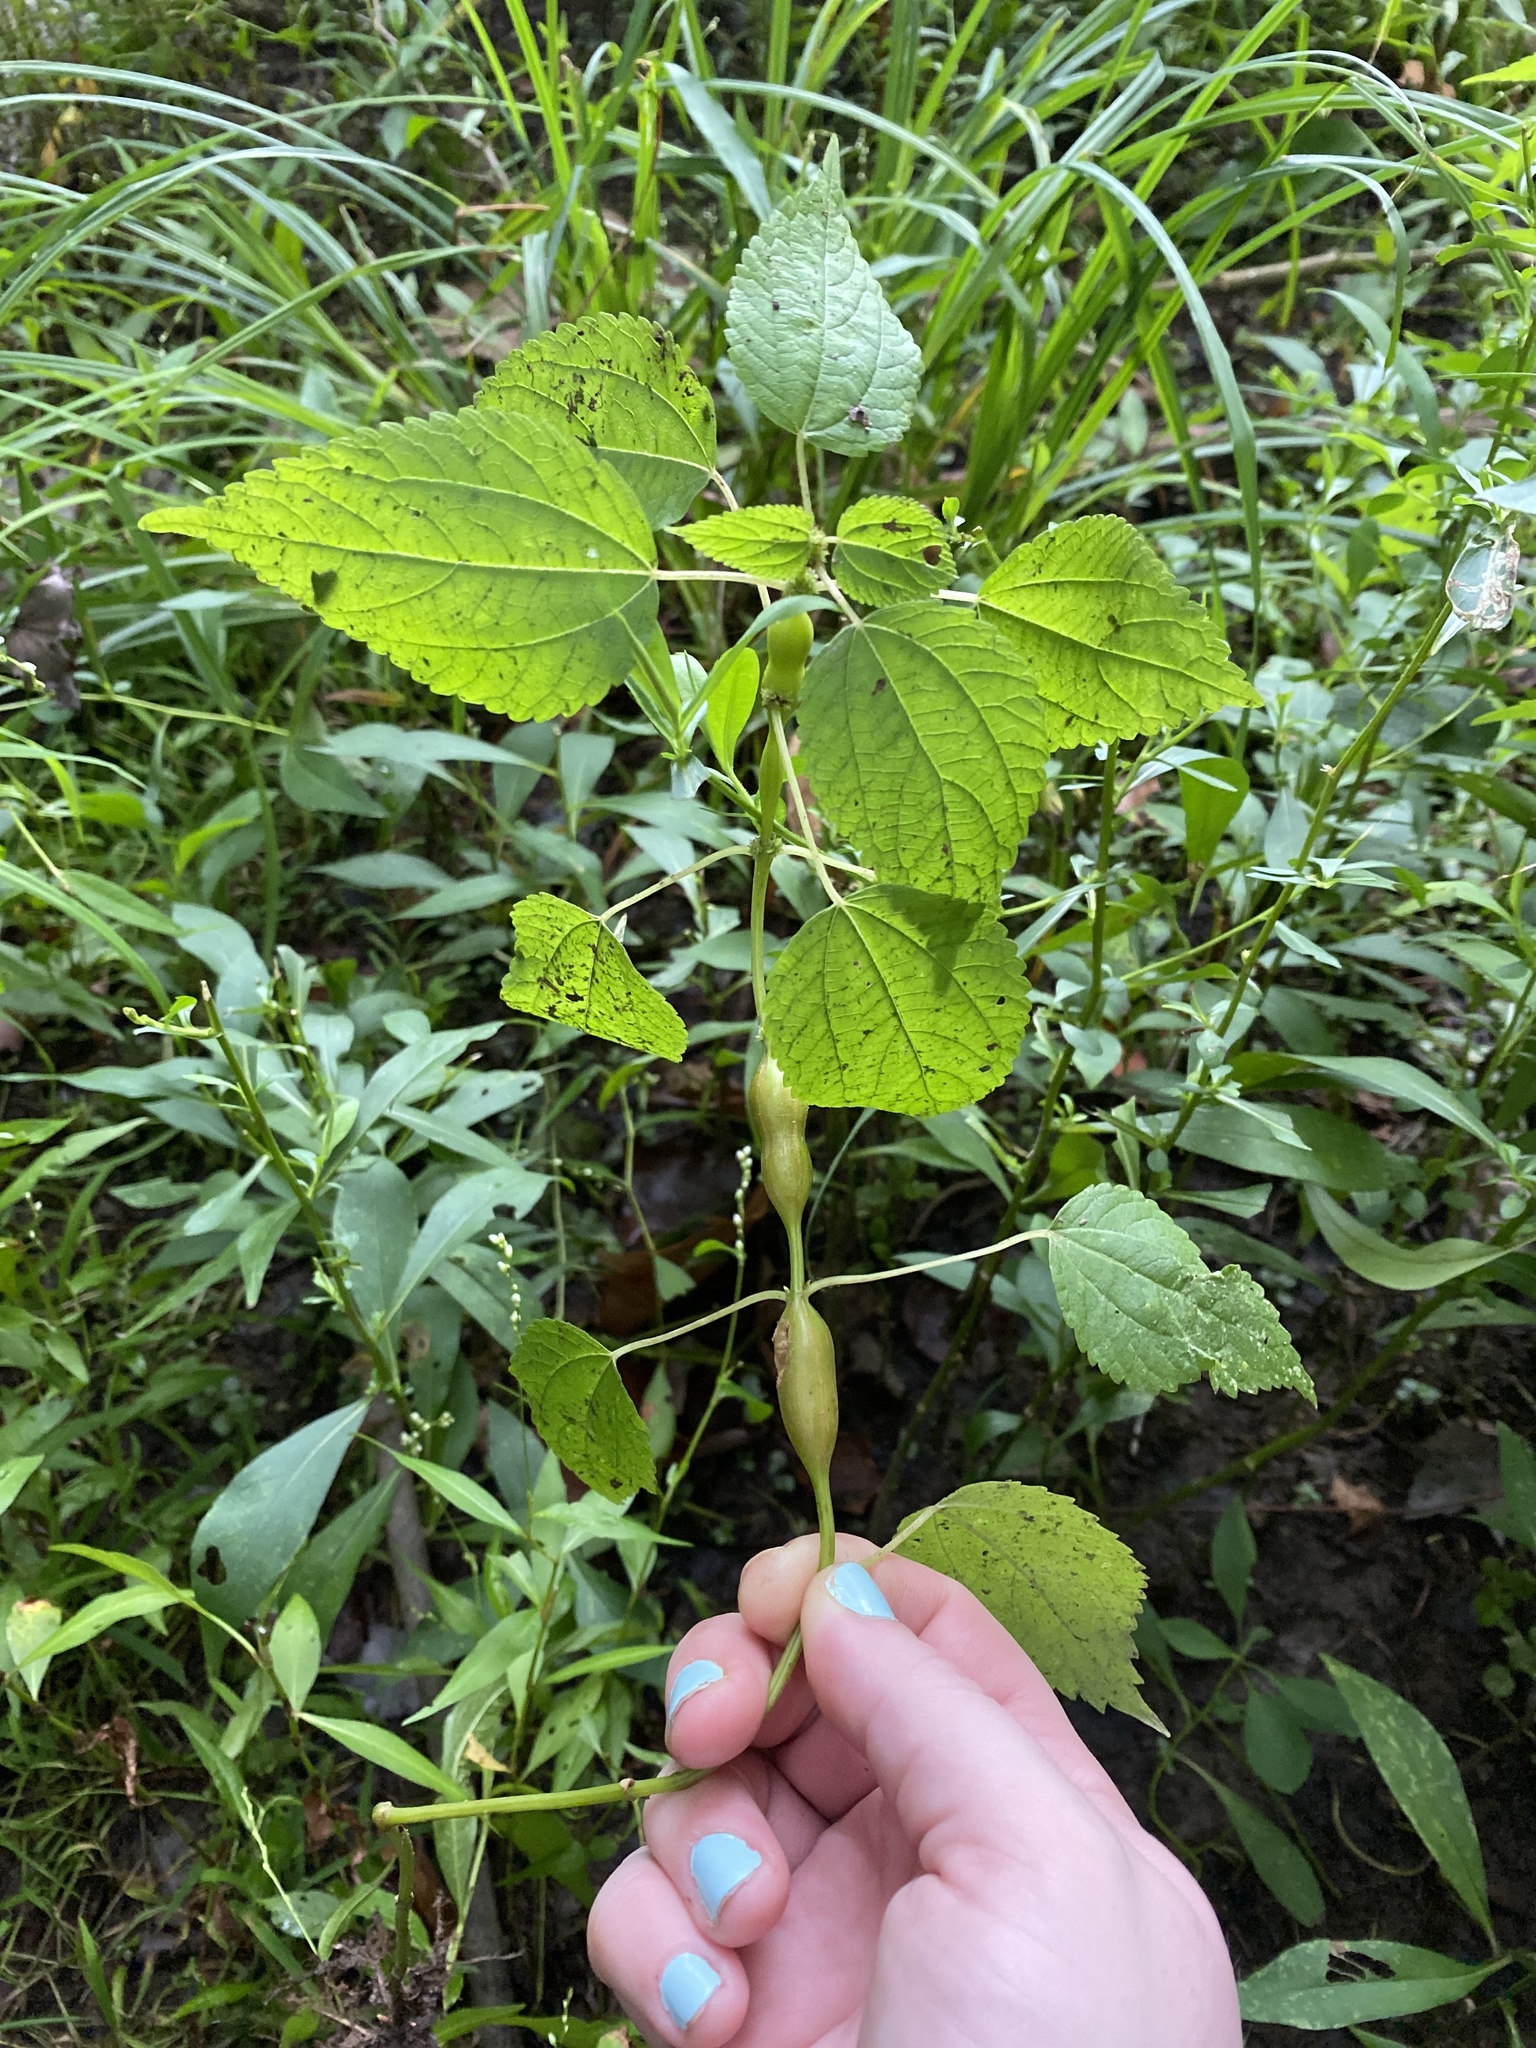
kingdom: Plantae
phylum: Tracheophyta
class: Magnoliopsida
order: Rosales
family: Urticaceae
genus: Boehmeria
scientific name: Boehmeria cylindrica
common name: Bog-hemp
